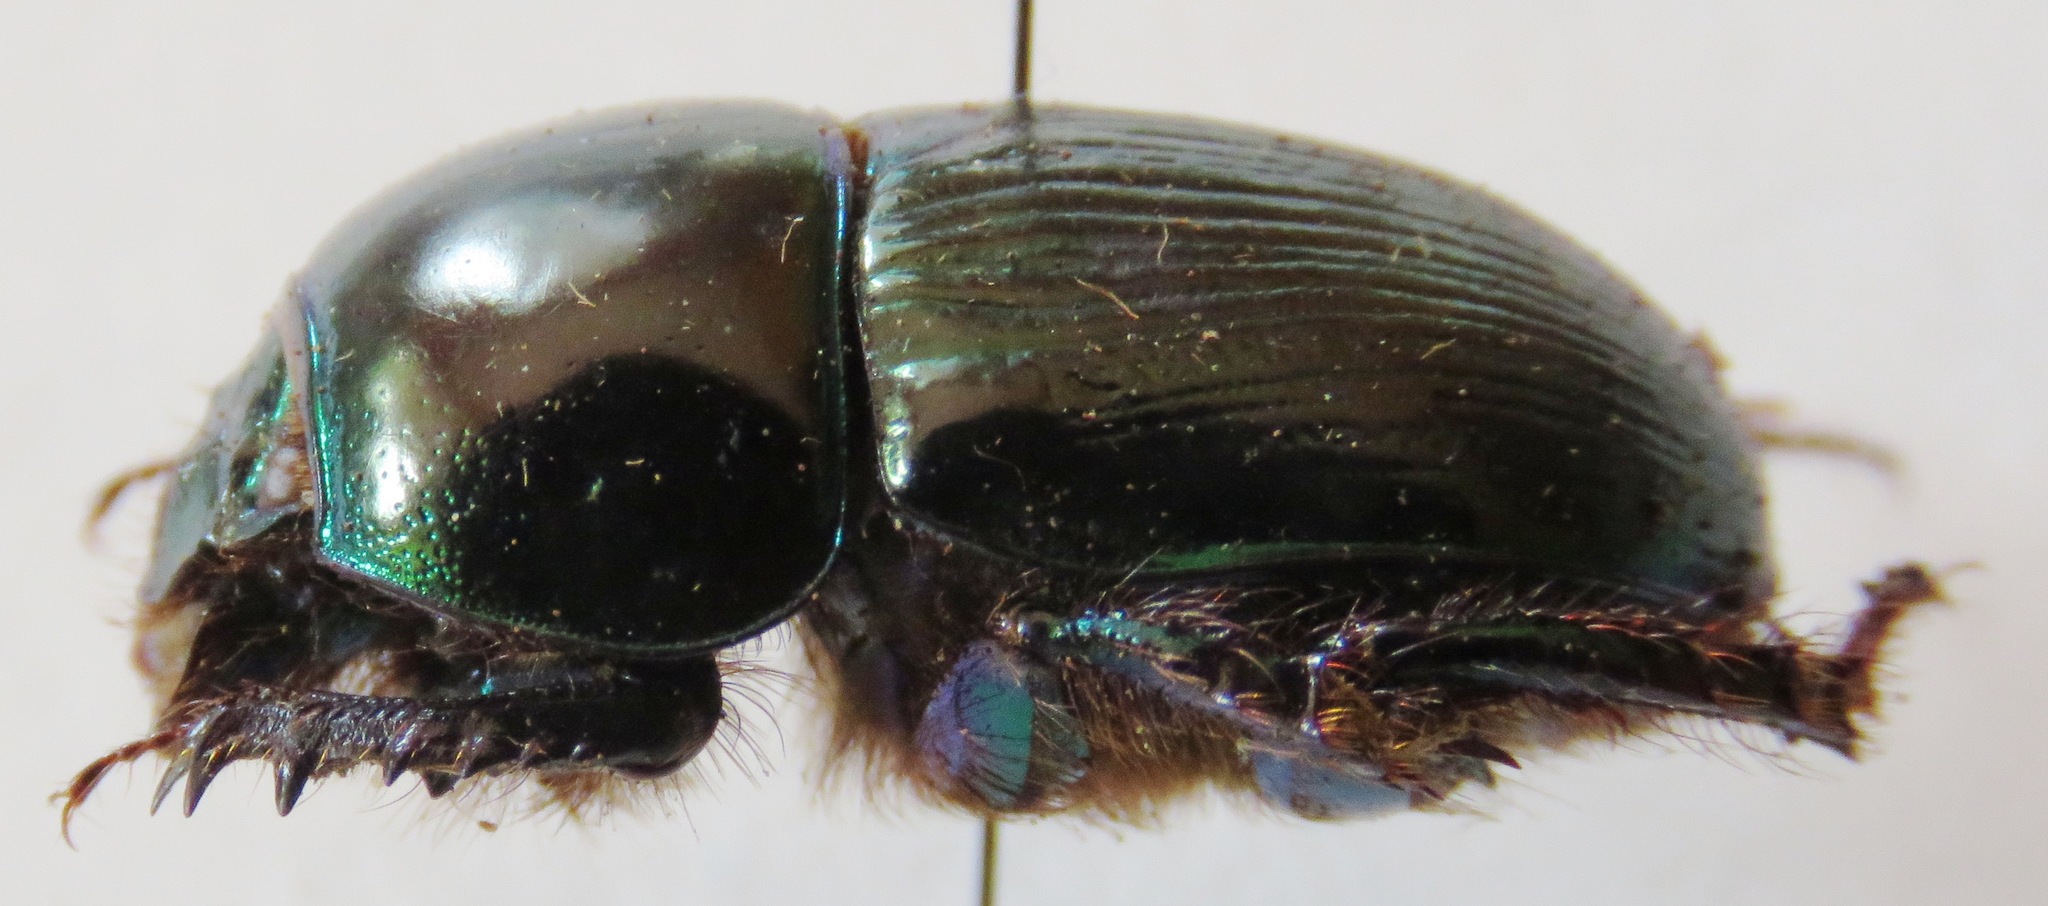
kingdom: Animalia
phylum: Arthropoda
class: Insecta
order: Coleoptera
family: Geotrupidae
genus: Geotrupes
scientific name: Geotrupes mutator
